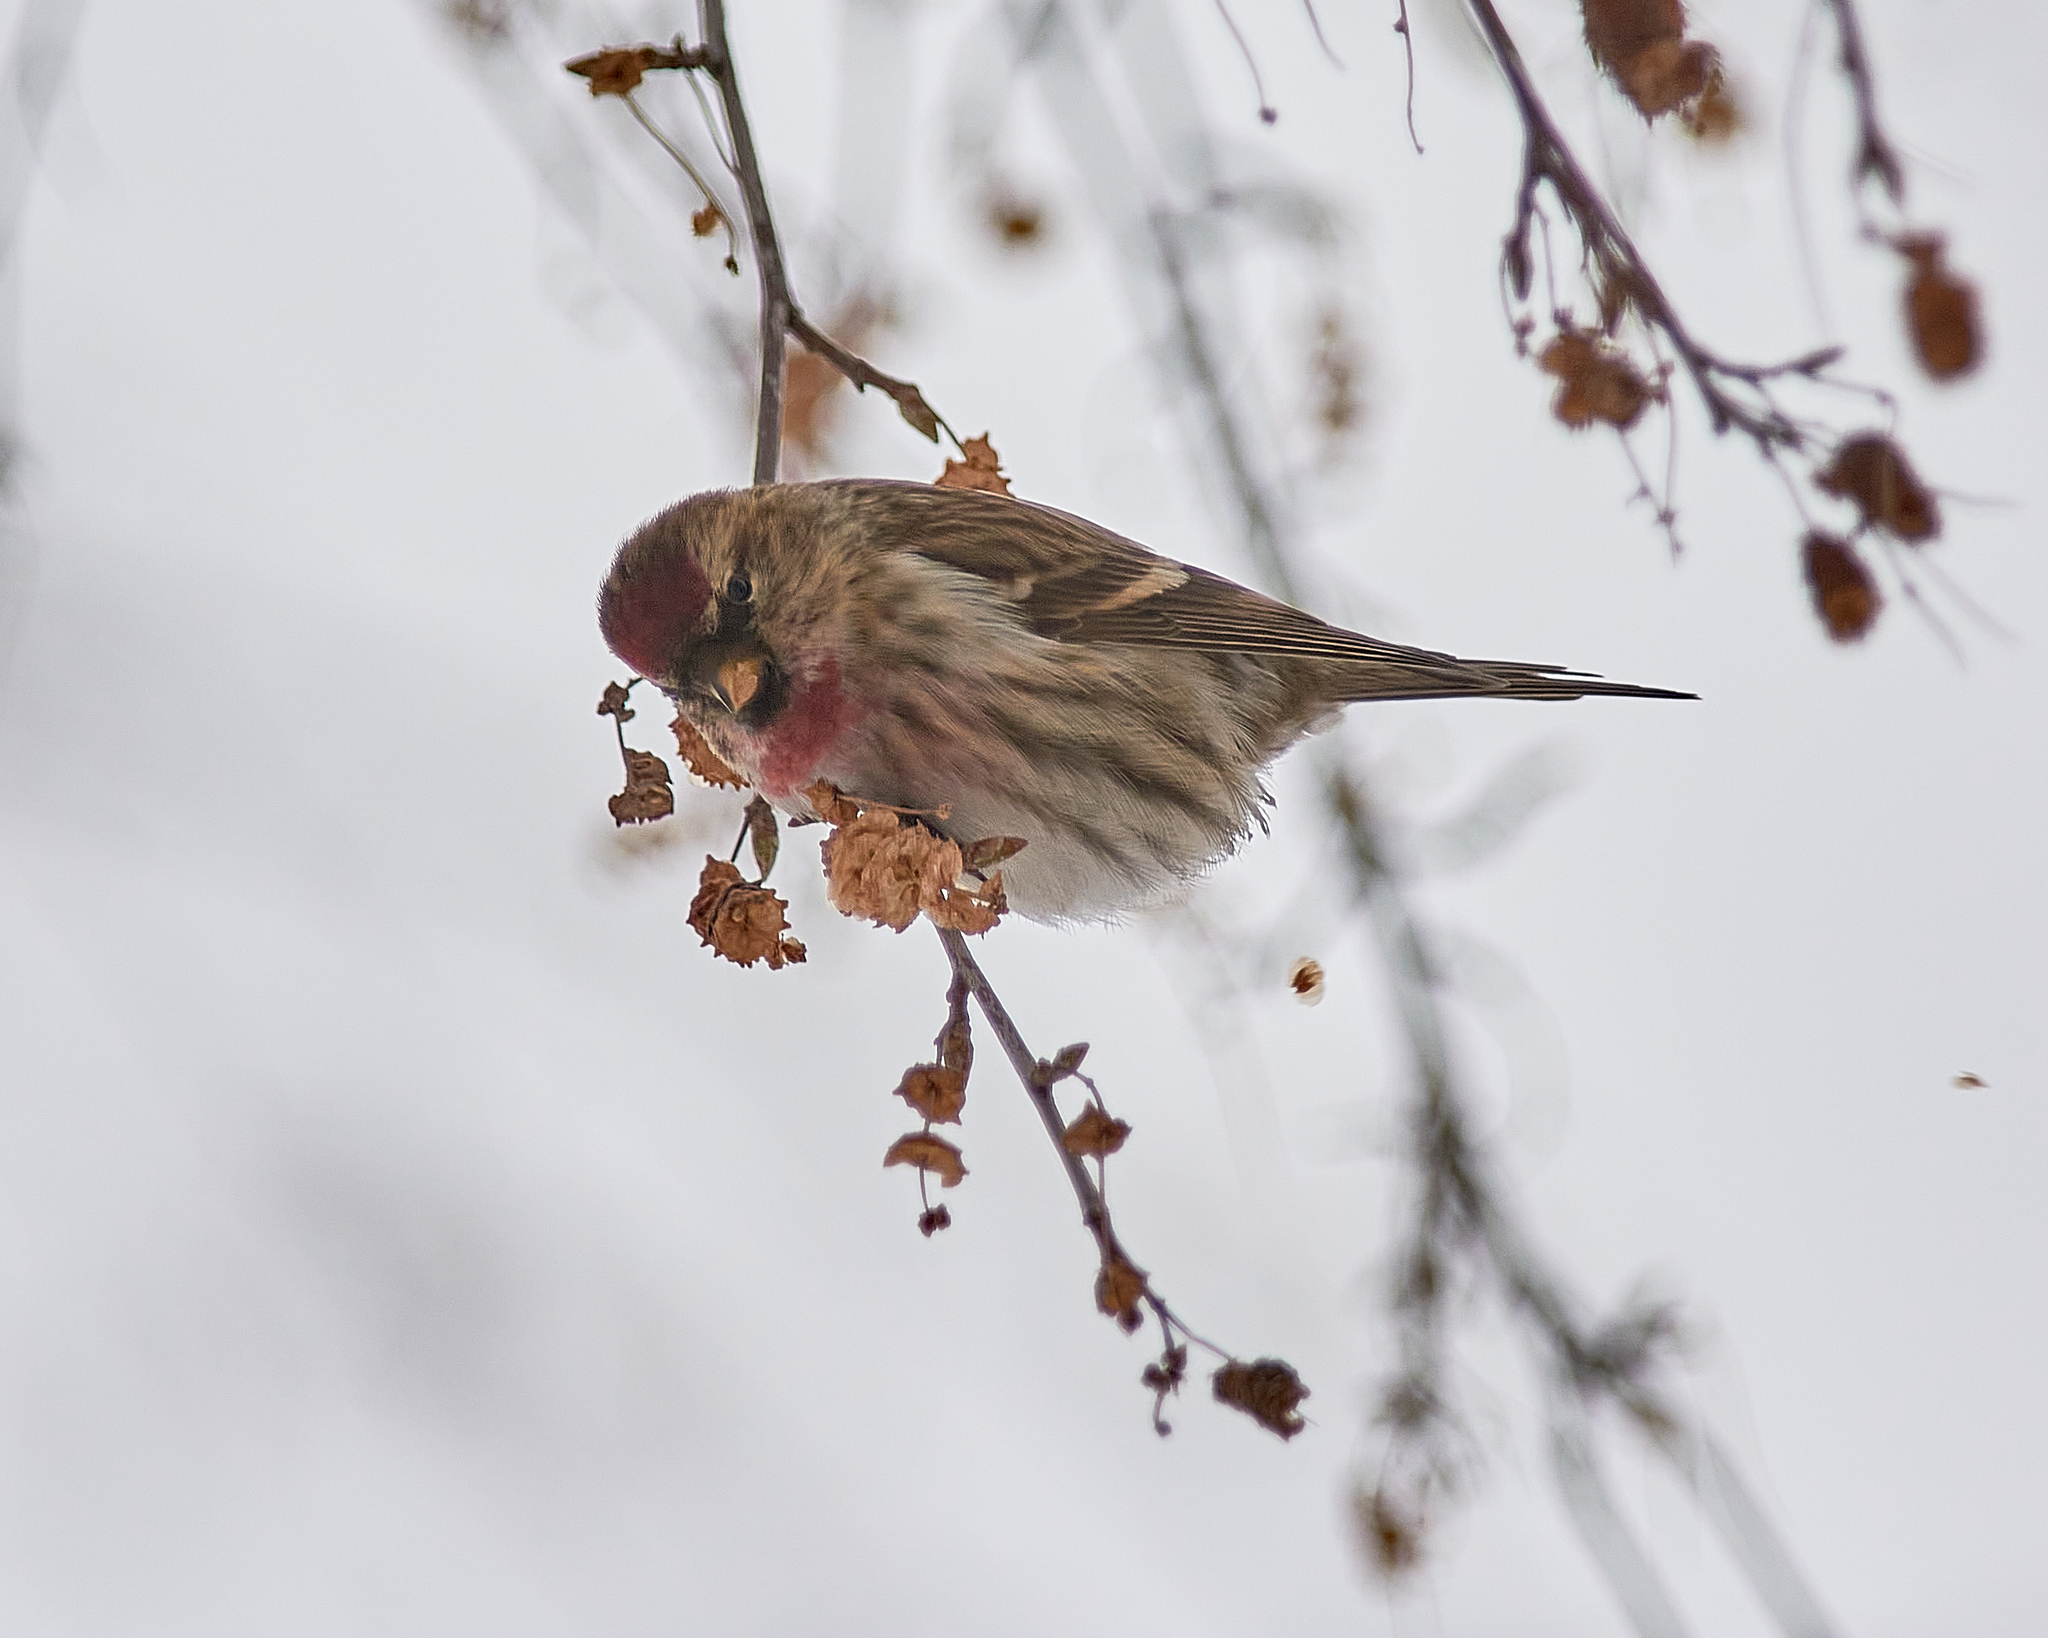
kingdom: Animalia
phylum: Chordata
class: Aves
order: Passeriformes
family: Fringillidae
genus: Acanthis
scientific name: Acanthis flammea
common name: Common redpoll
